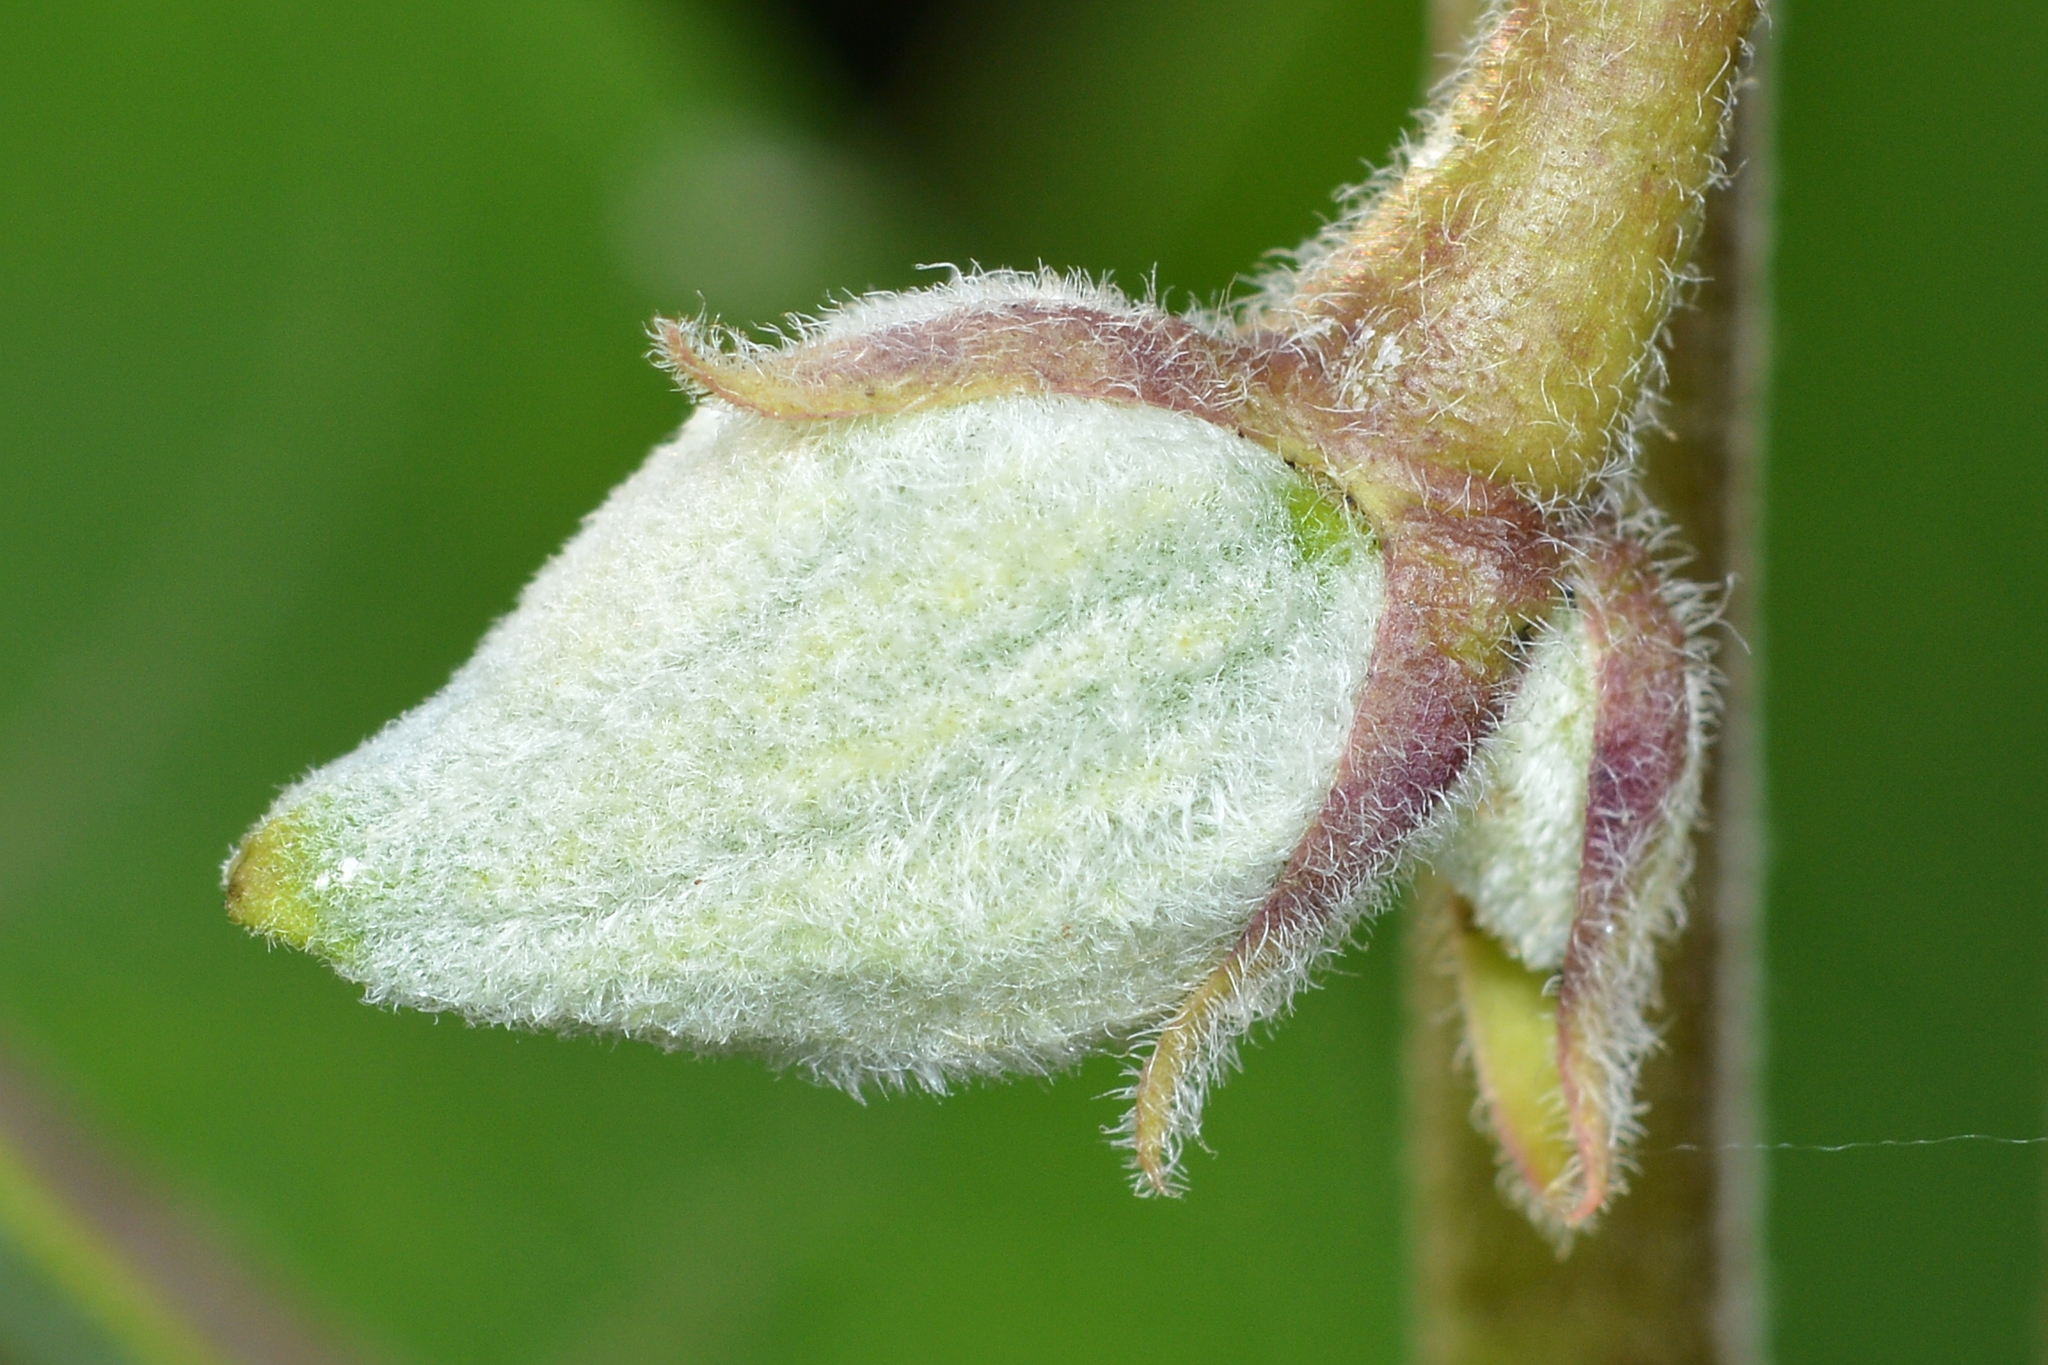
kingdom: Plantae
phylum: Tracheophyta
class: Magnoliopsida
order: Gentianales
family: Apocynaceae
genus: Asclepias
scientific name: Asclepias syriaca
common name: Common milkweed
